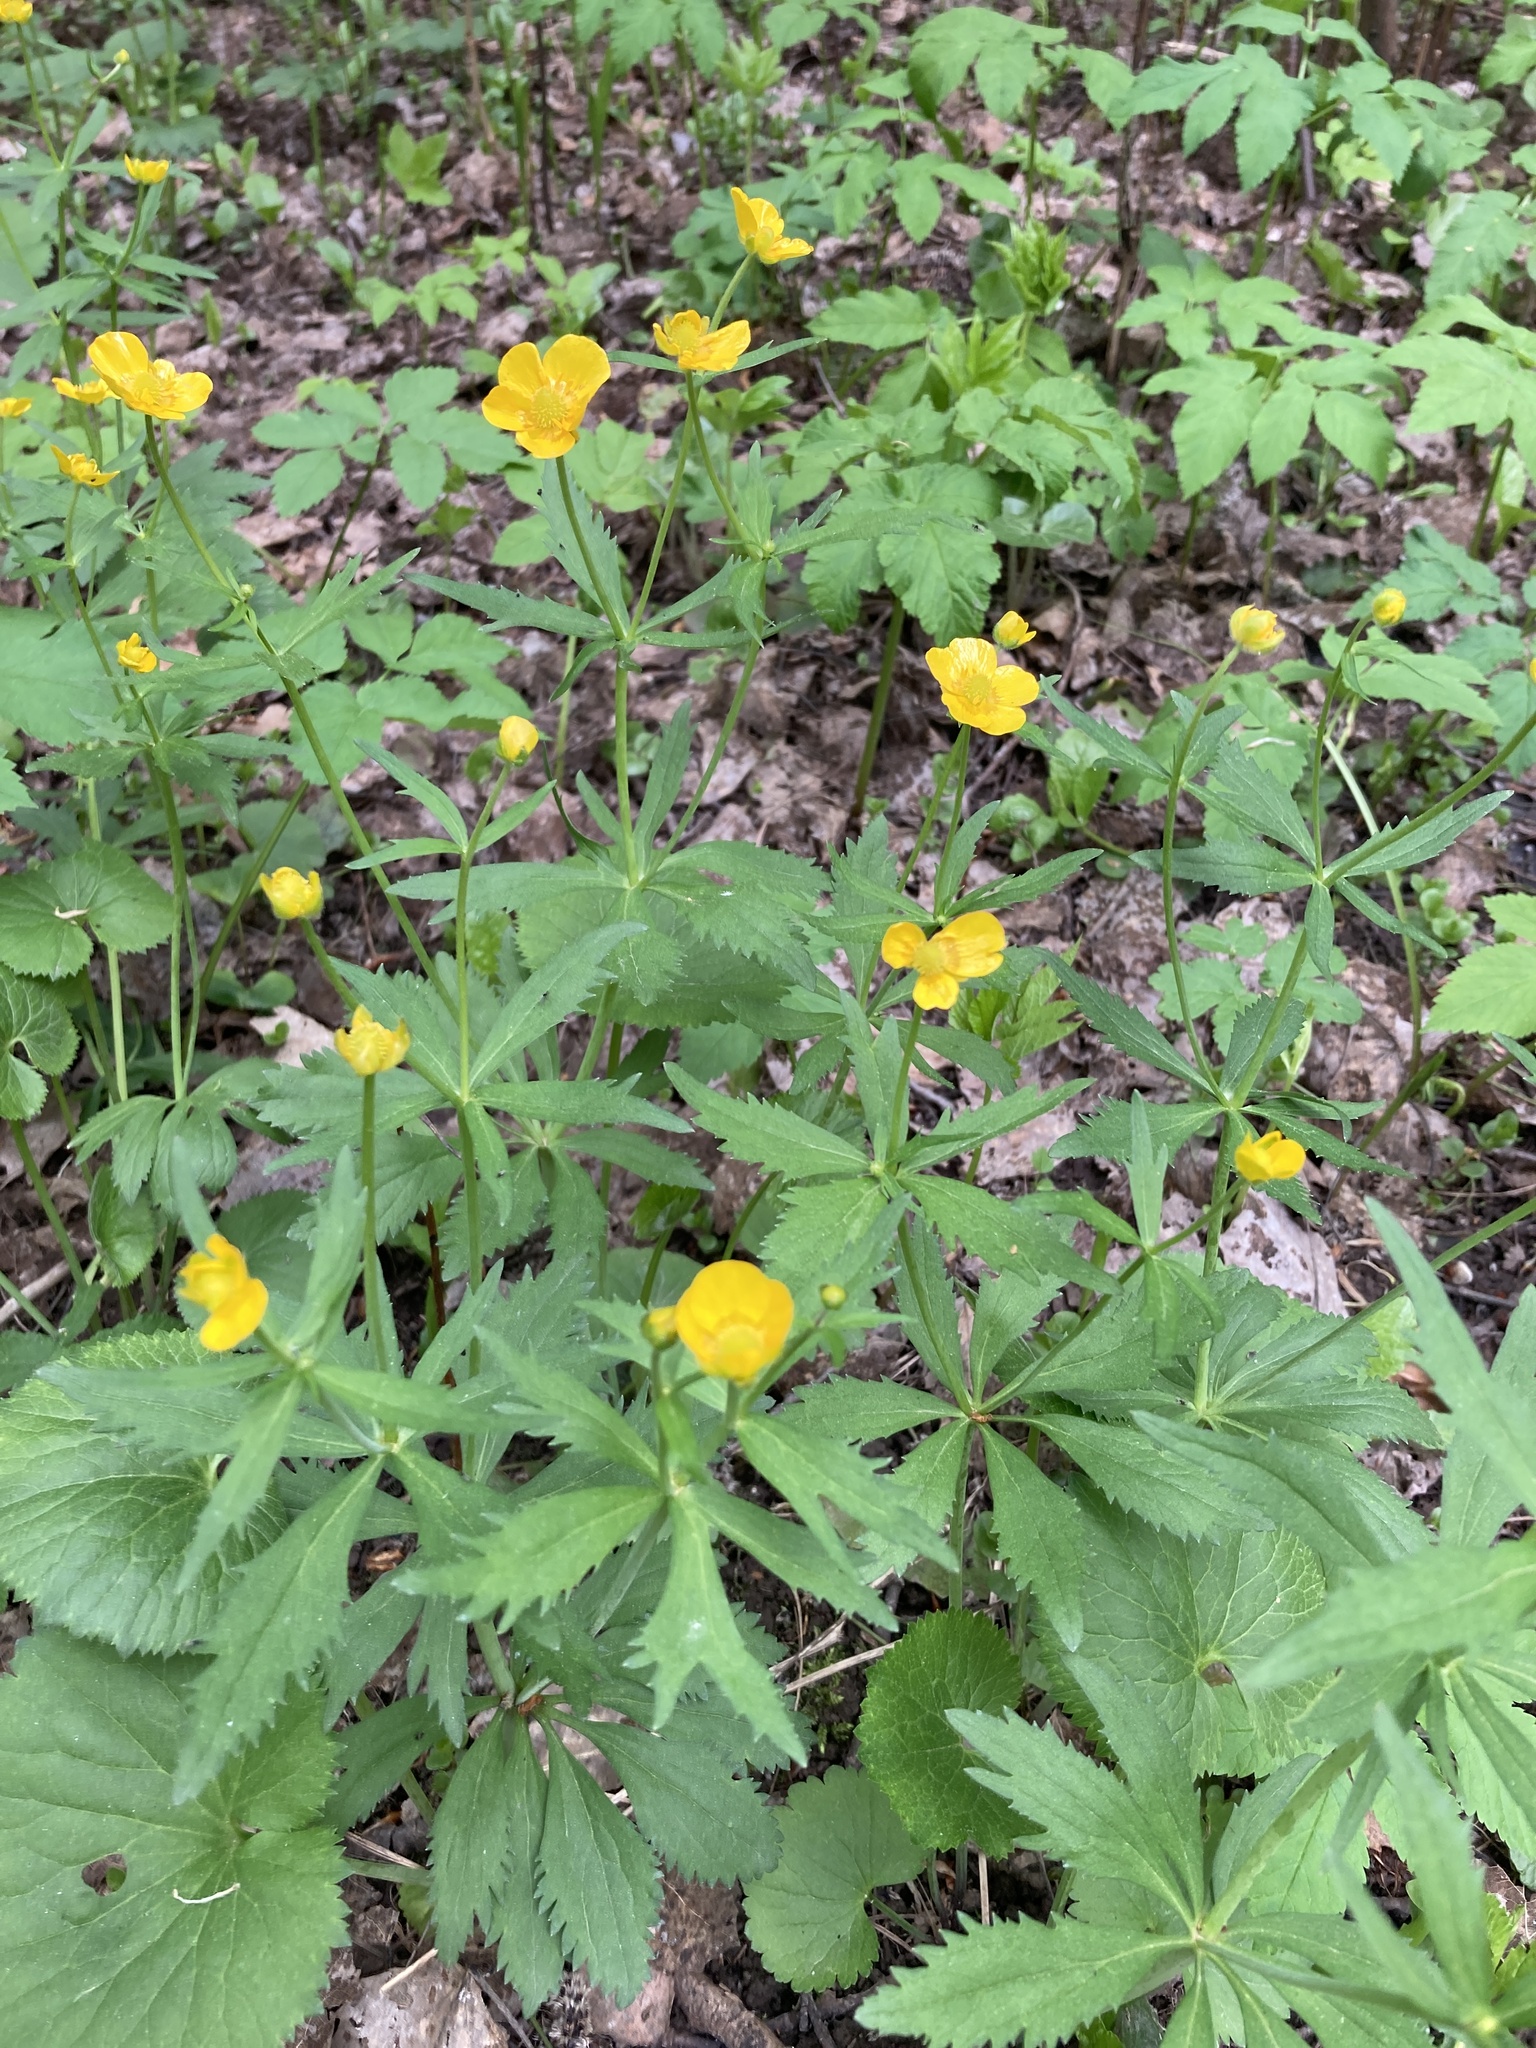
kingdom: Plantae
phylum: Tracheophyta
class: Magnoliopsida
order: Ranunculales
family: Ranunculaceae
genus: Ranunculus
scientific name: Ranunculus cassubicus
